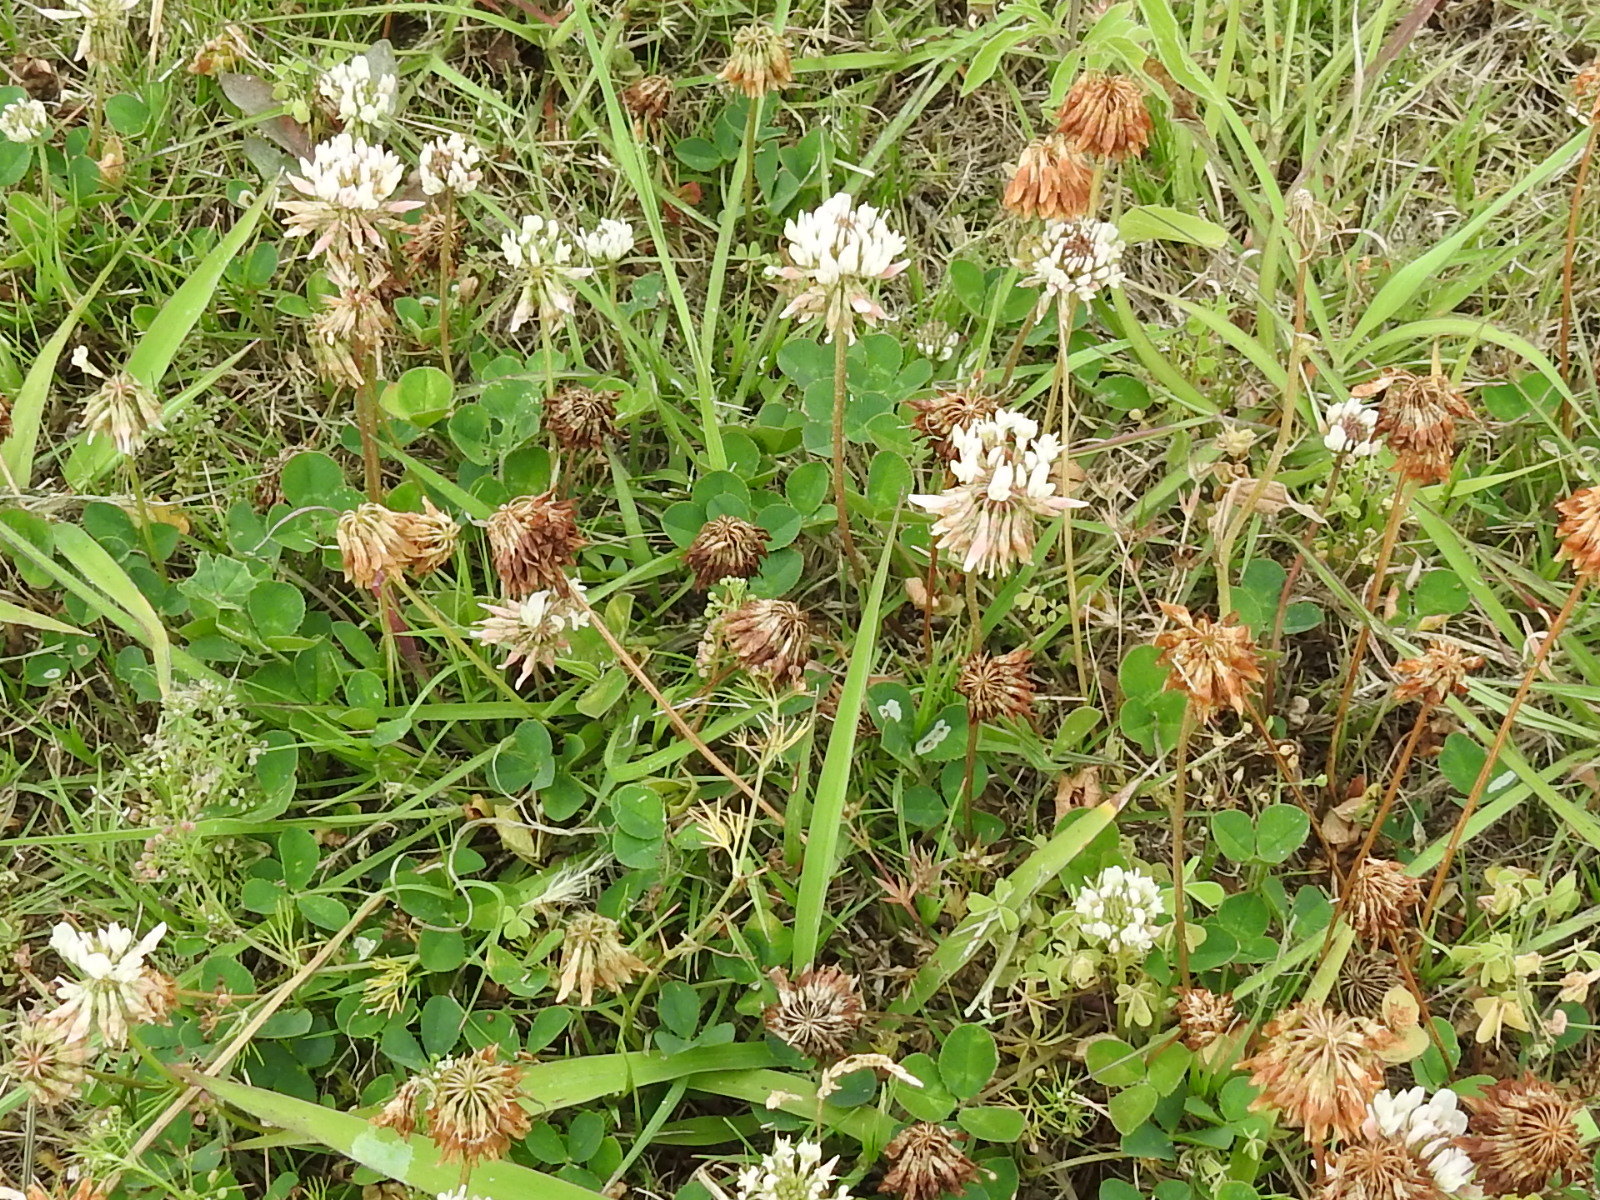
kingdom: Plantae
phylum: Tracheophyta
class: Magnoliopsida
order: Fabales
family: Fabaceae
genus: Trifolium
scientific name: Trifolium repens
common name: White clover
